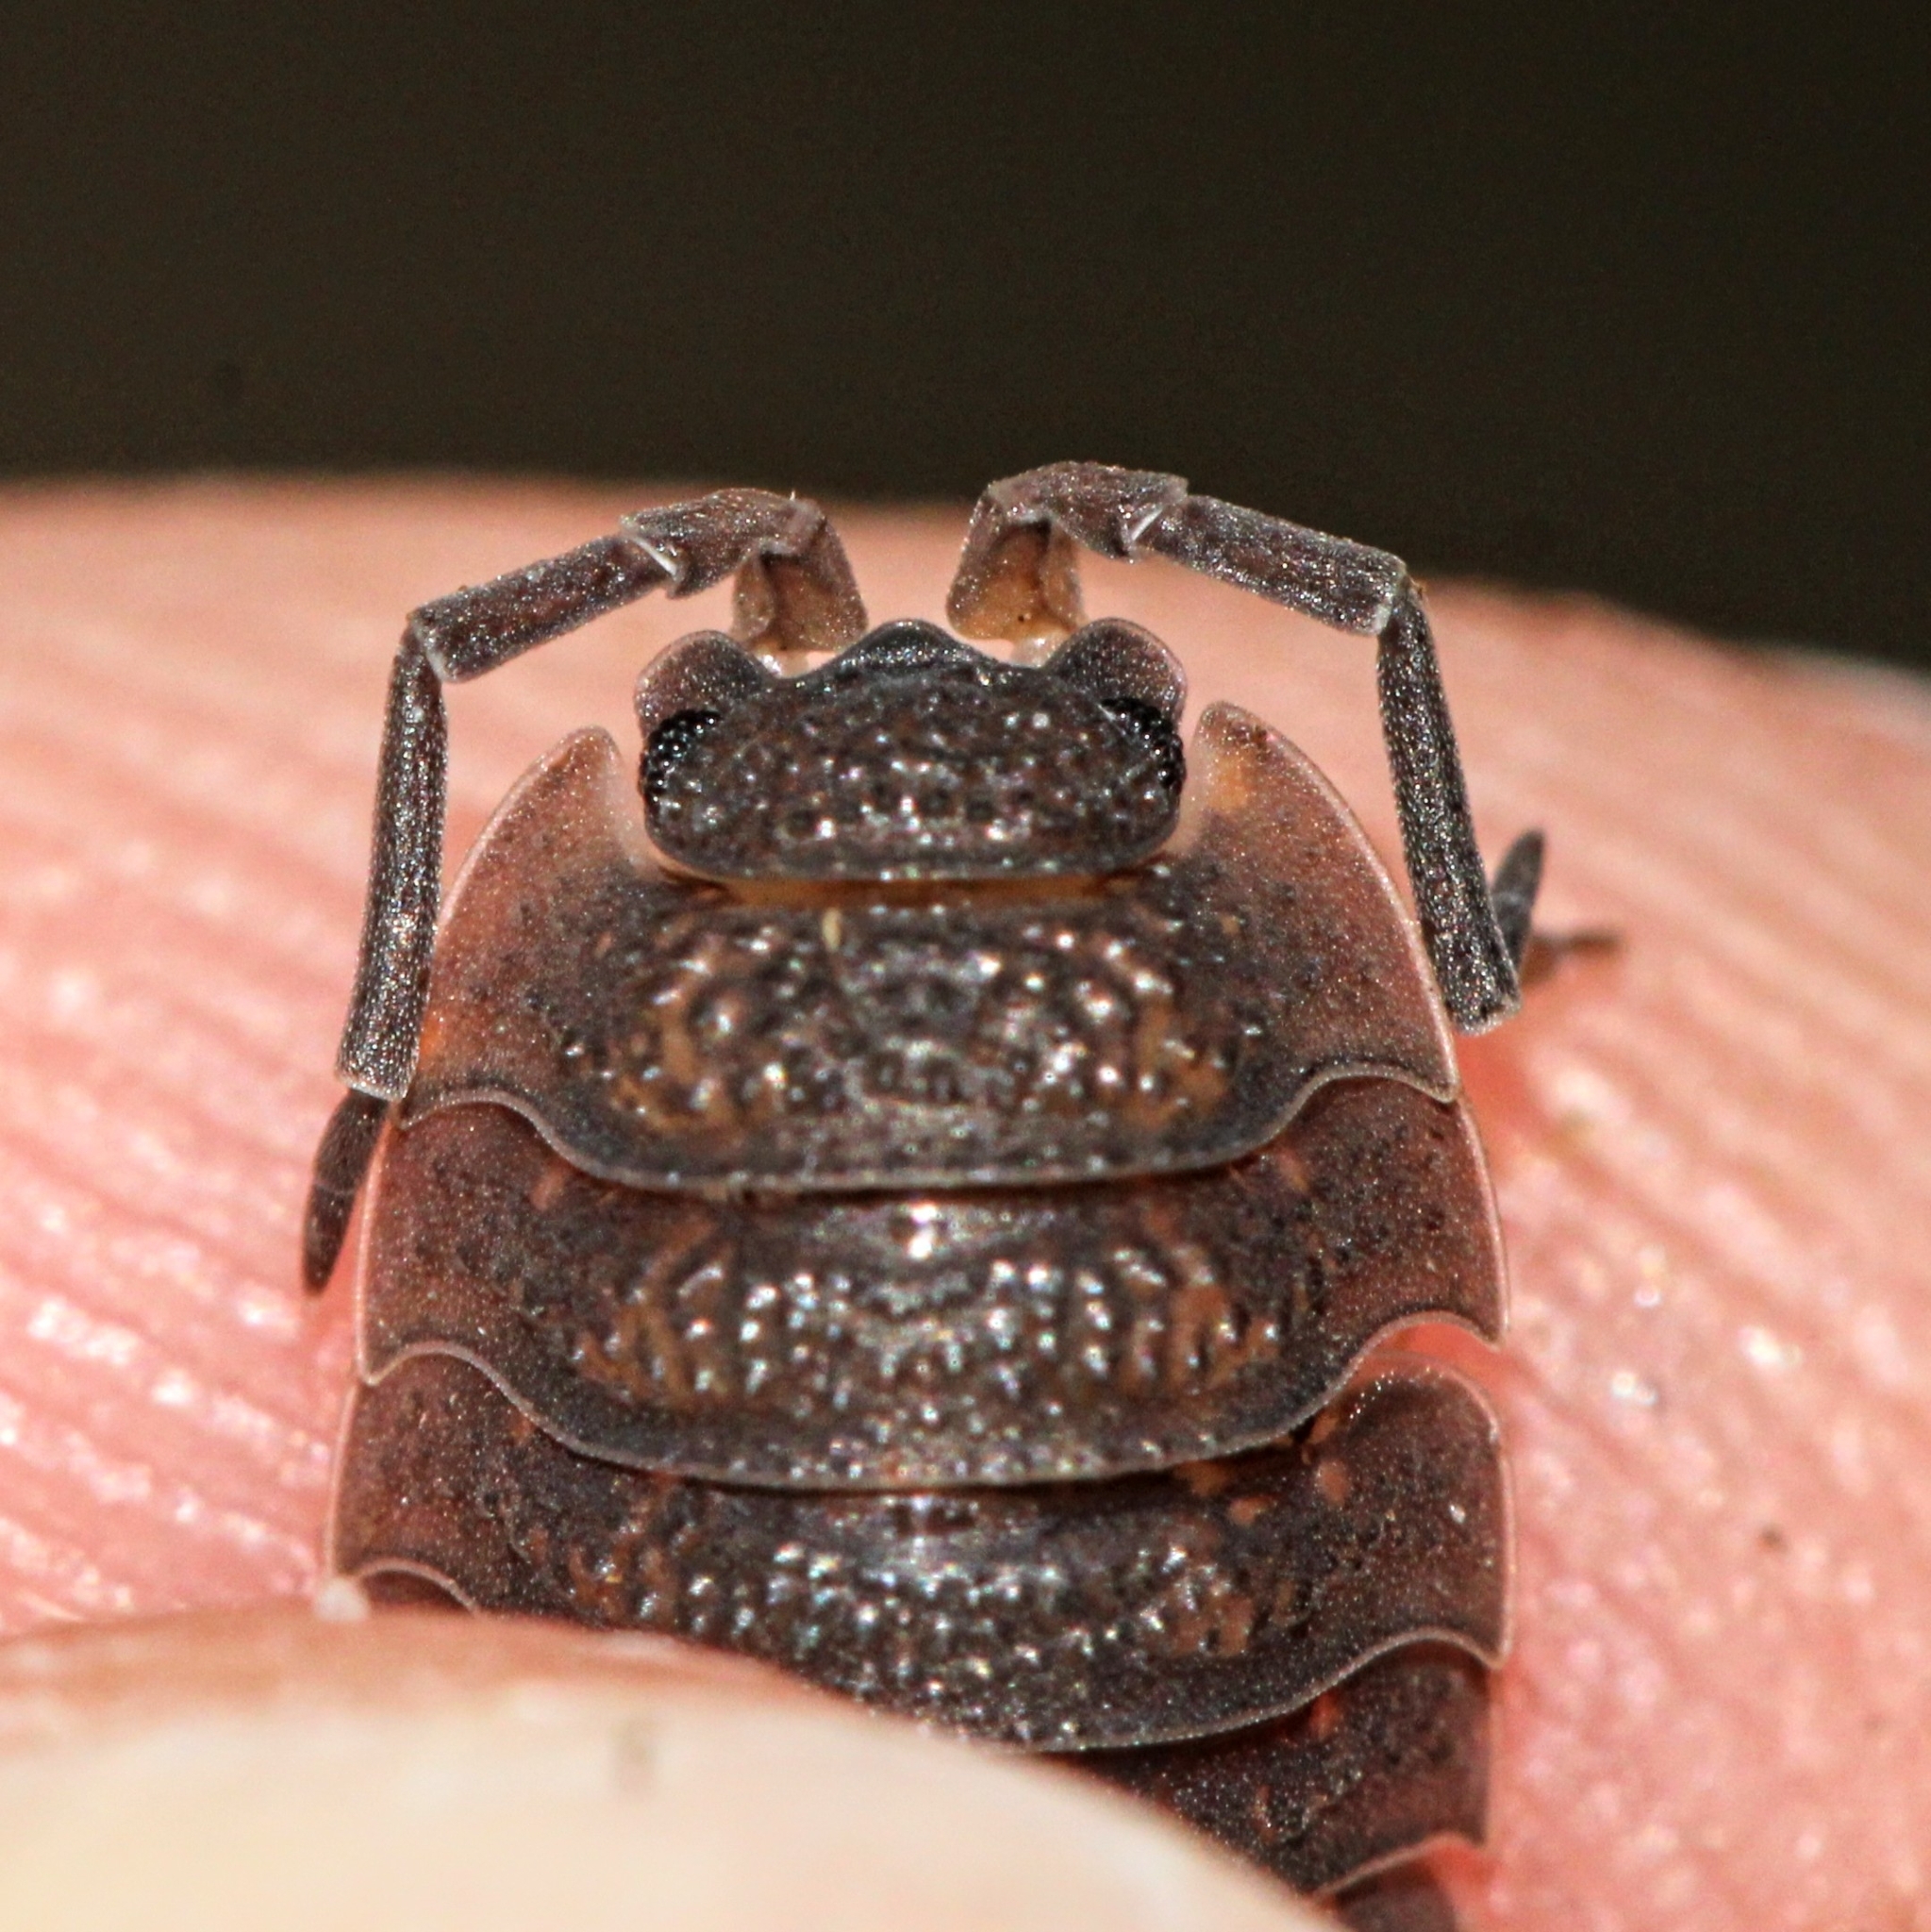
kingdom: Animalia
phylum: Arthropoda
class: Malacostraca
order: Isopoda
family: Porcellionidae
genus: Porcellio
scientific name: Porcellio scaber
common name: Common rough woodlouse
